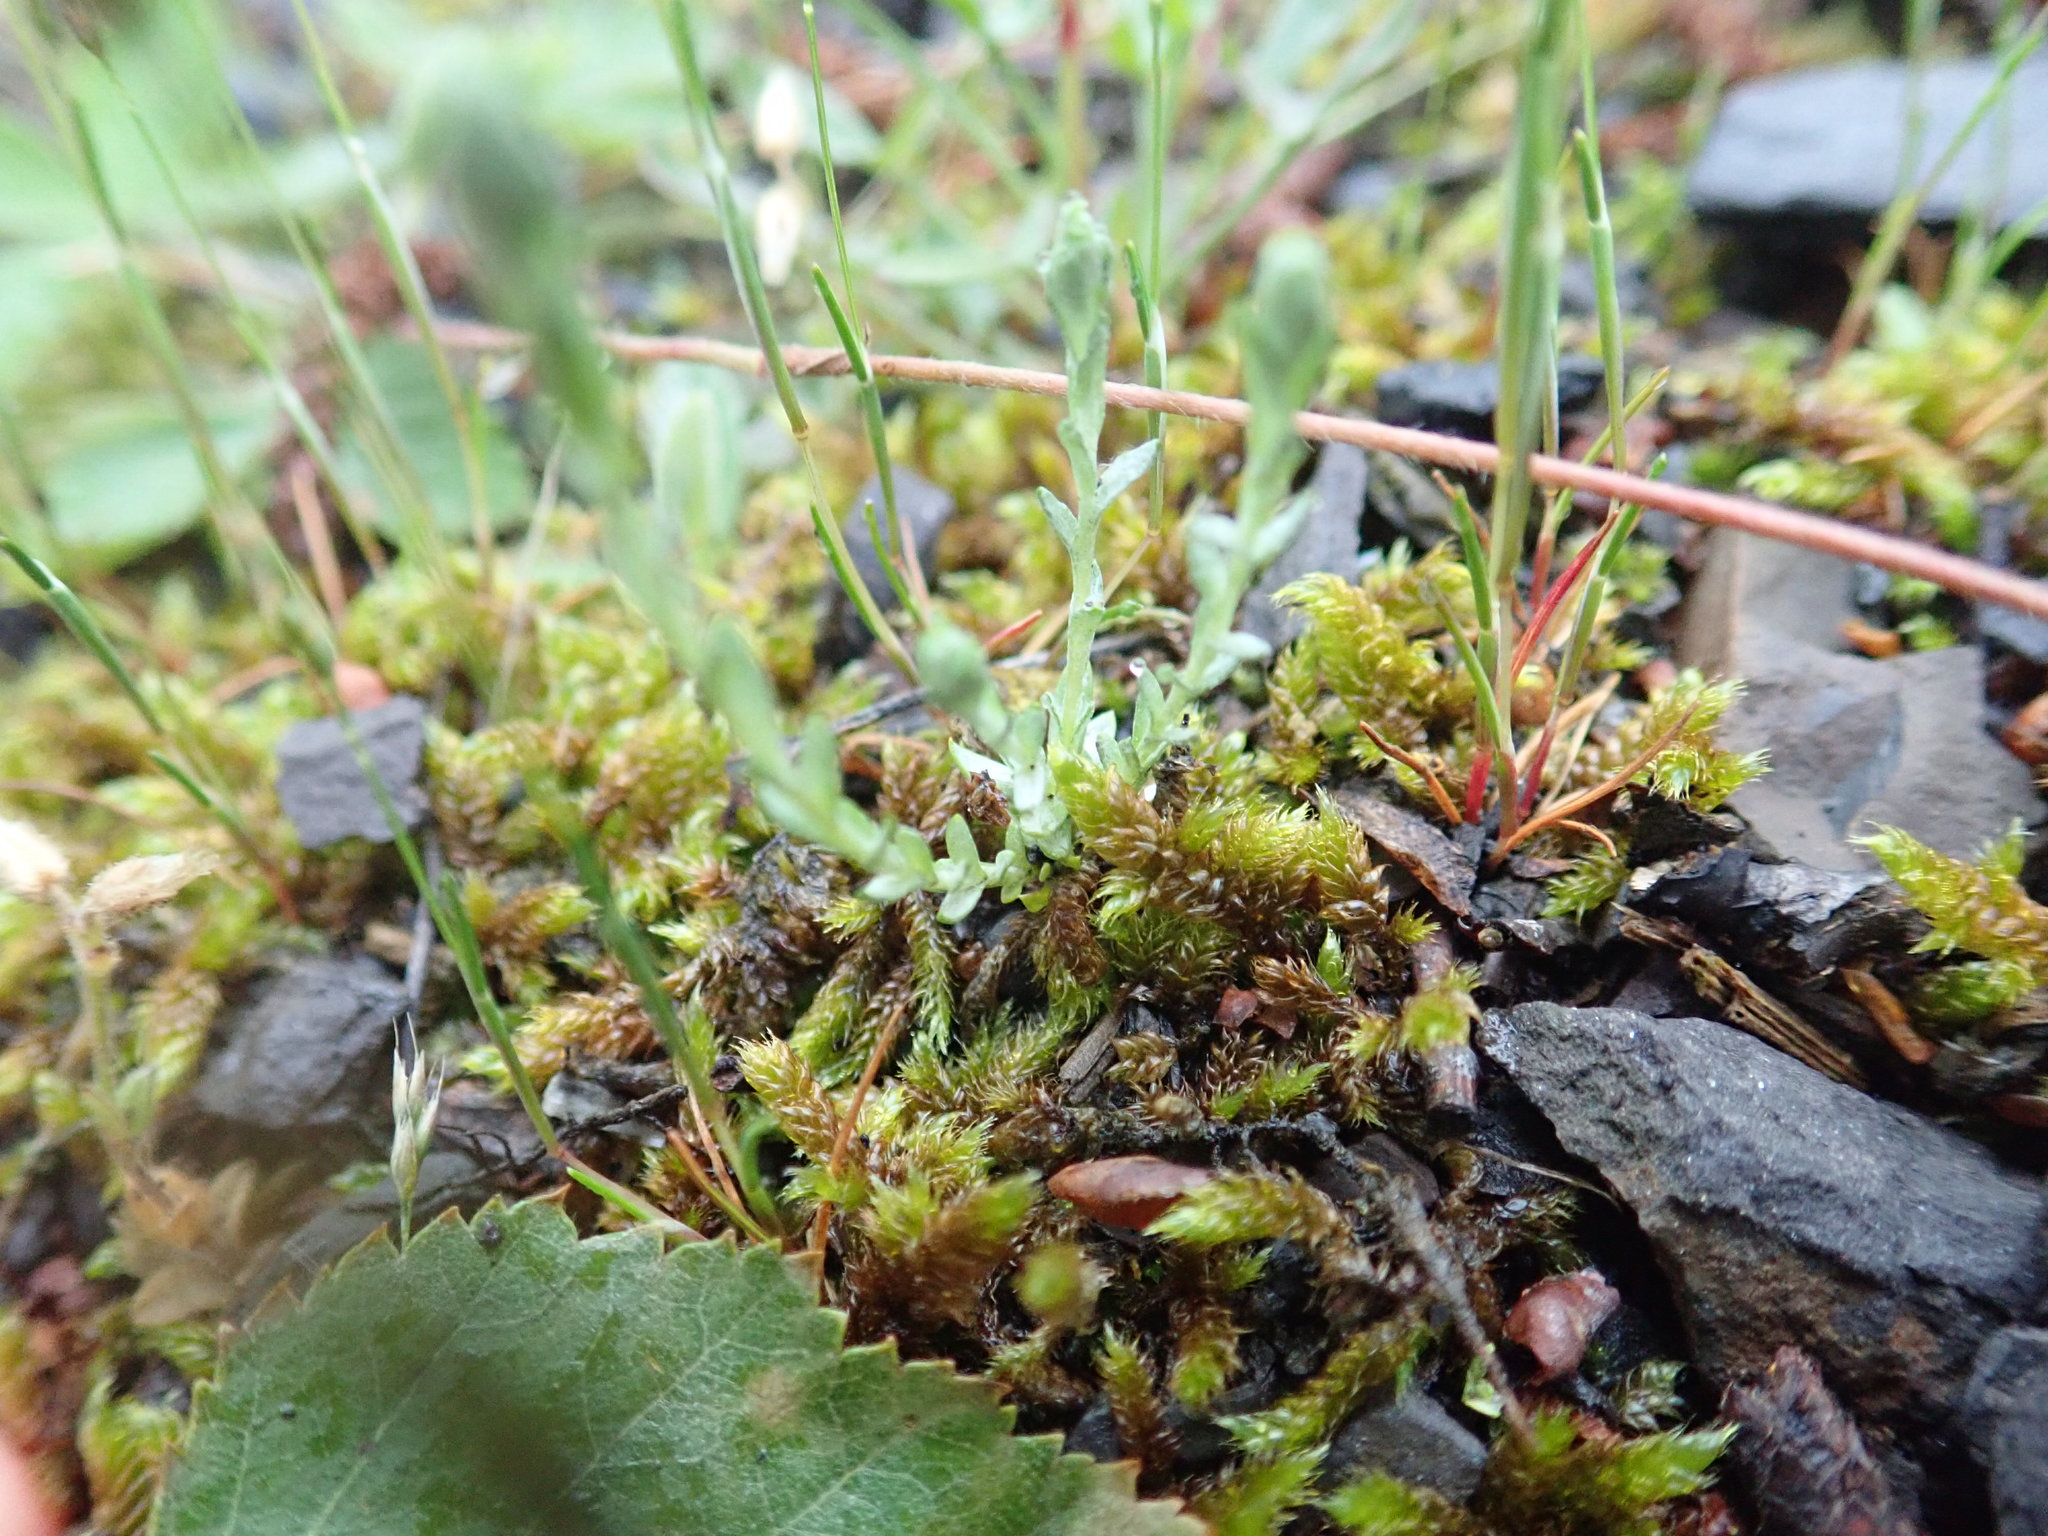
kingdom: Plantae
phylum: Tracheophyta
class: Magnoliopsida
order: Asterales
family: Asteraceae
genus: Logfia
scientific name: Logfia minima
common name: Little cottonrose
